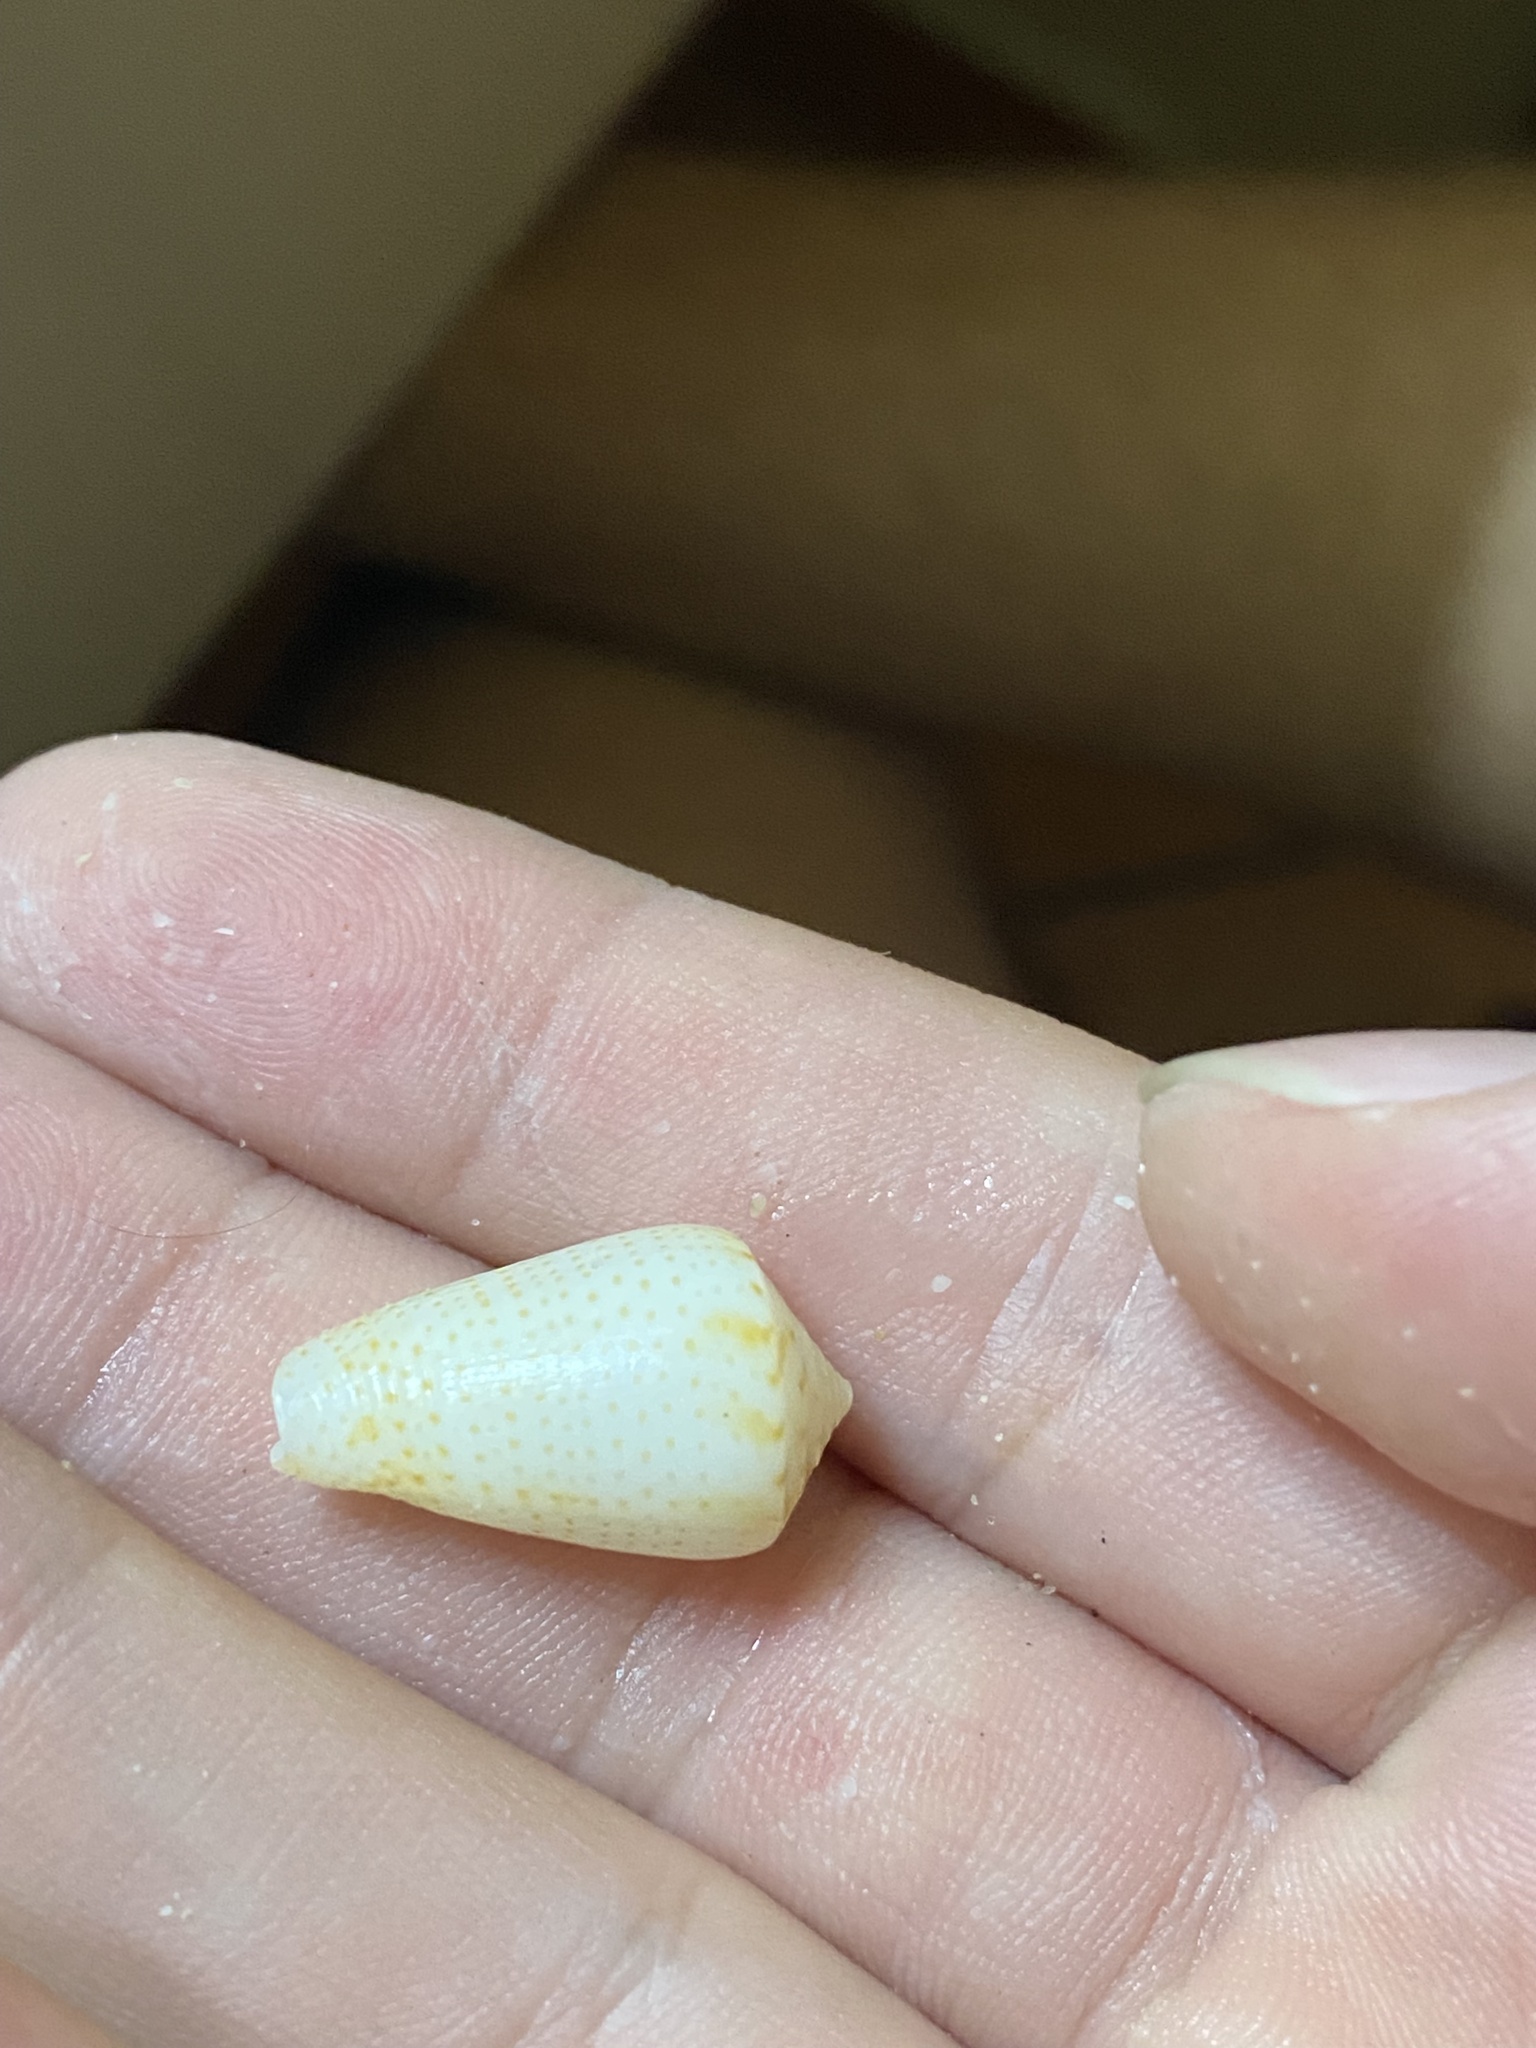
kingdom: Animalia
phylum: Mollusca
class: Gastropoda
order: Neogastropoda
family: Conidae
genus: Conasprella
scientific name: Conasprella perplexa
